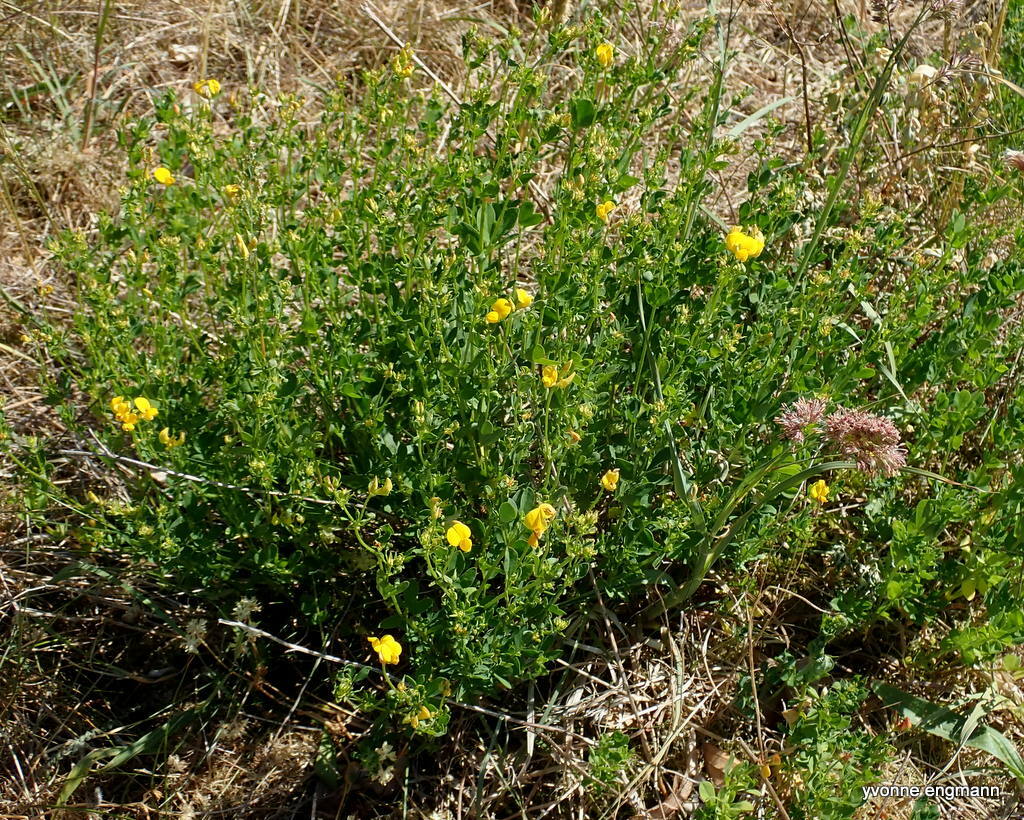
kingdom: Plantae
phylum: Tracheophyta
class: Magnoliopsida
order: Fabales
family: Fabaceae
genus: Lotus
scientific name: Lotus corniculatus
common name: Common bird's-foot-trefoil
